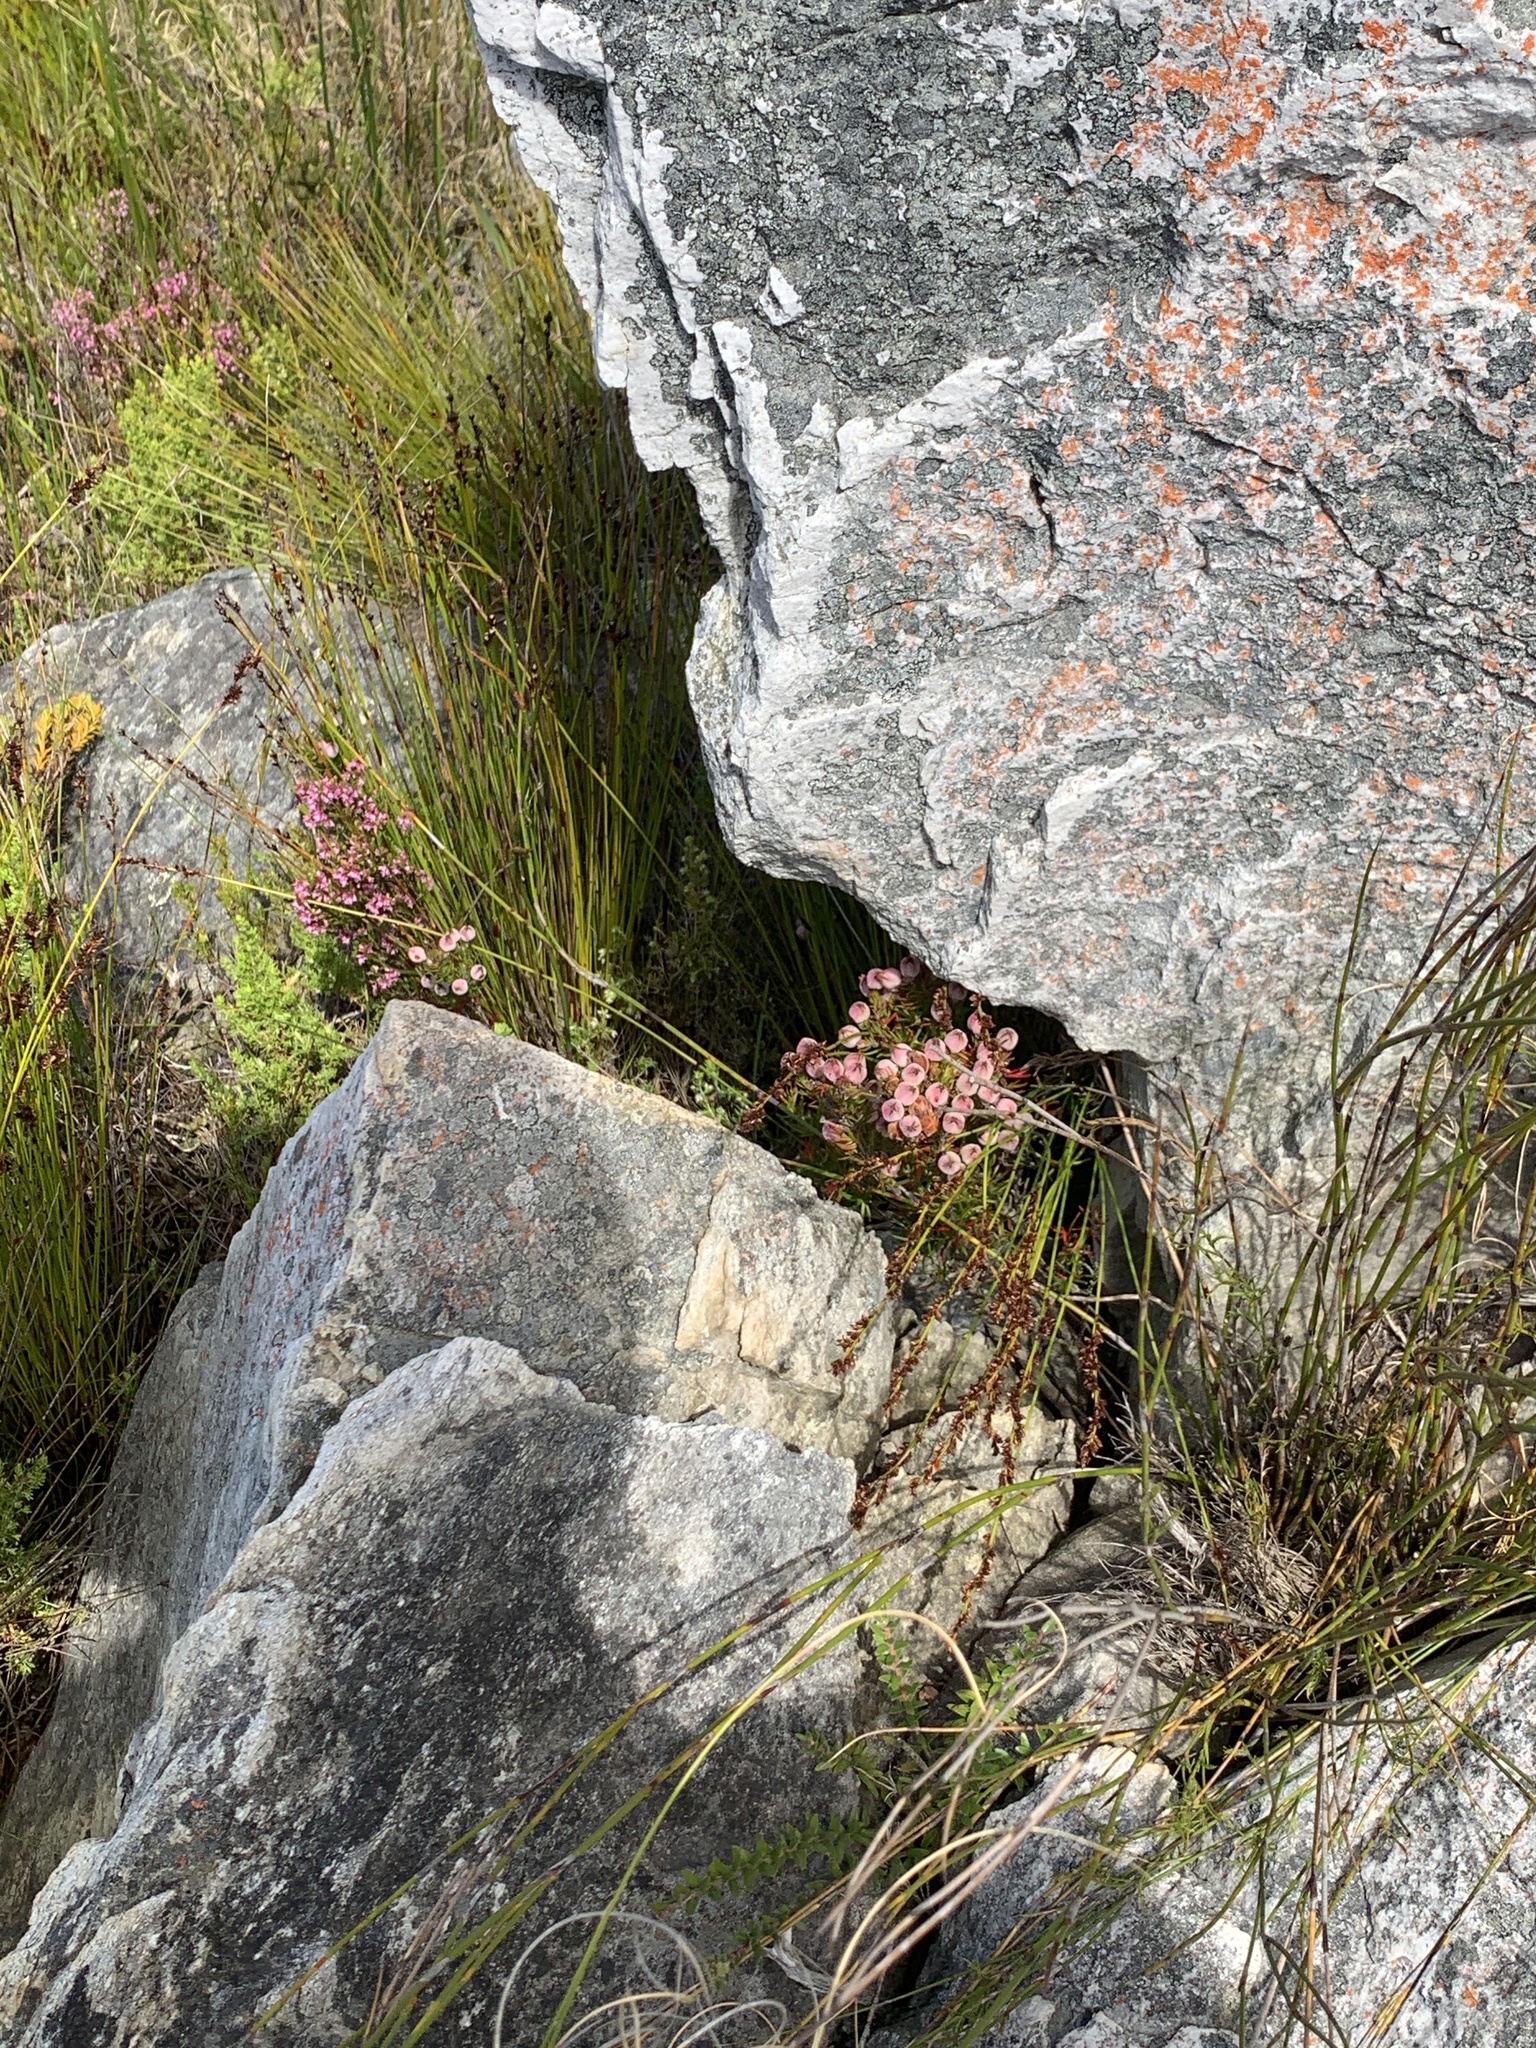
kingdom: Plantae
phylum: Tracheophyta
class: Magnoliopsida
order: Ericales
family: Ericaceae
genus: Erica
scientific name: Erica holosericea
